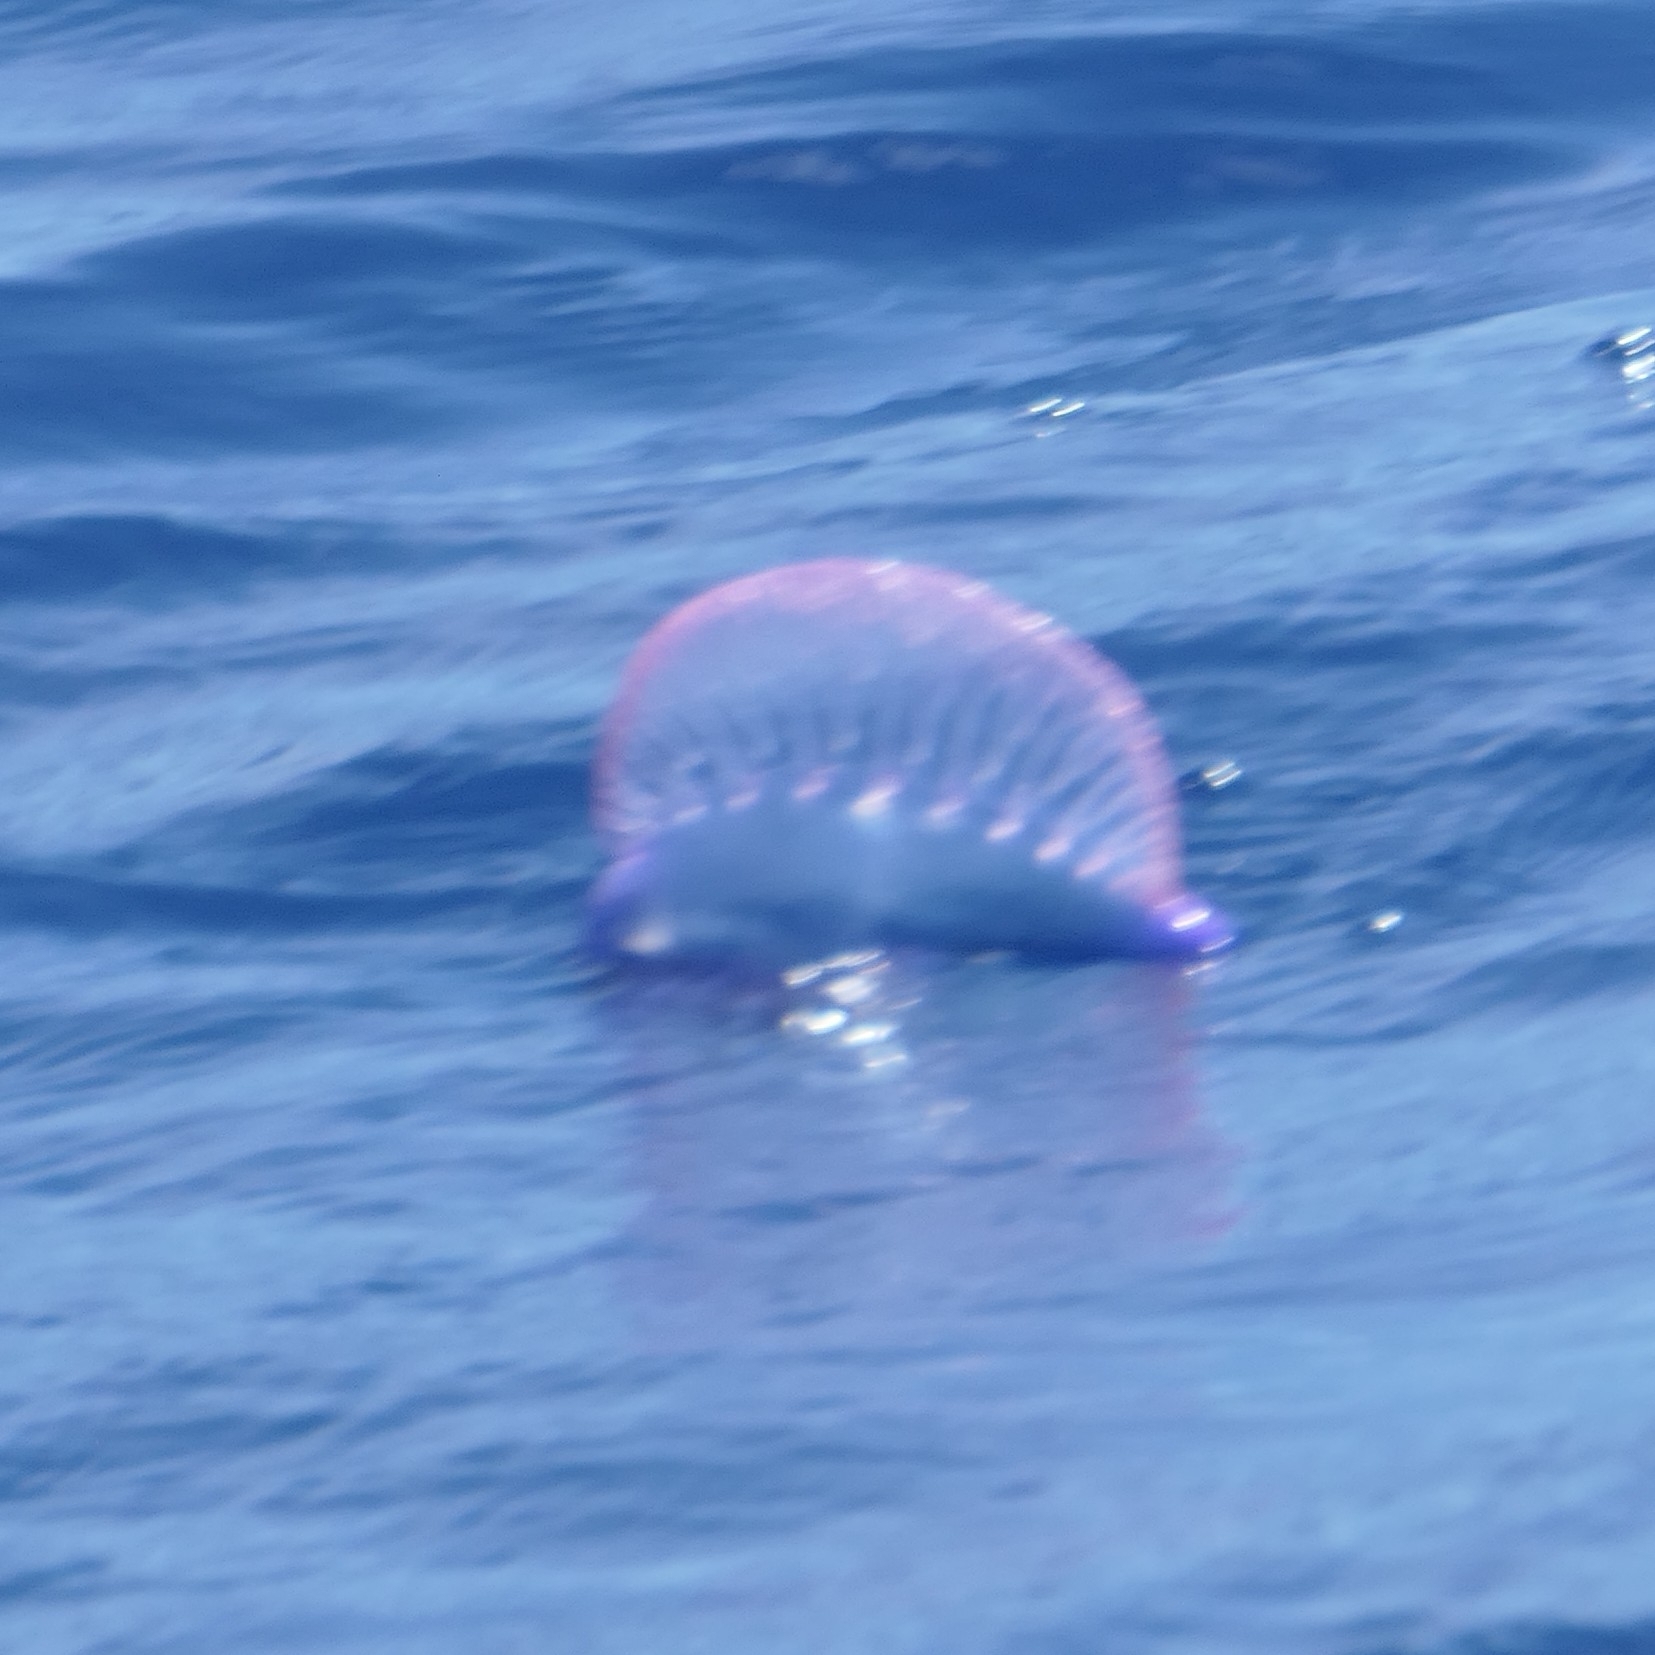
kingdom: Animalia
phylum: Cnidaria
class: Hydrozoa
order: Siphonophorae
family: Physaliidae
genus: Physalia
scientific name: Physalia physalis
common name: Portuguese man-of-war
